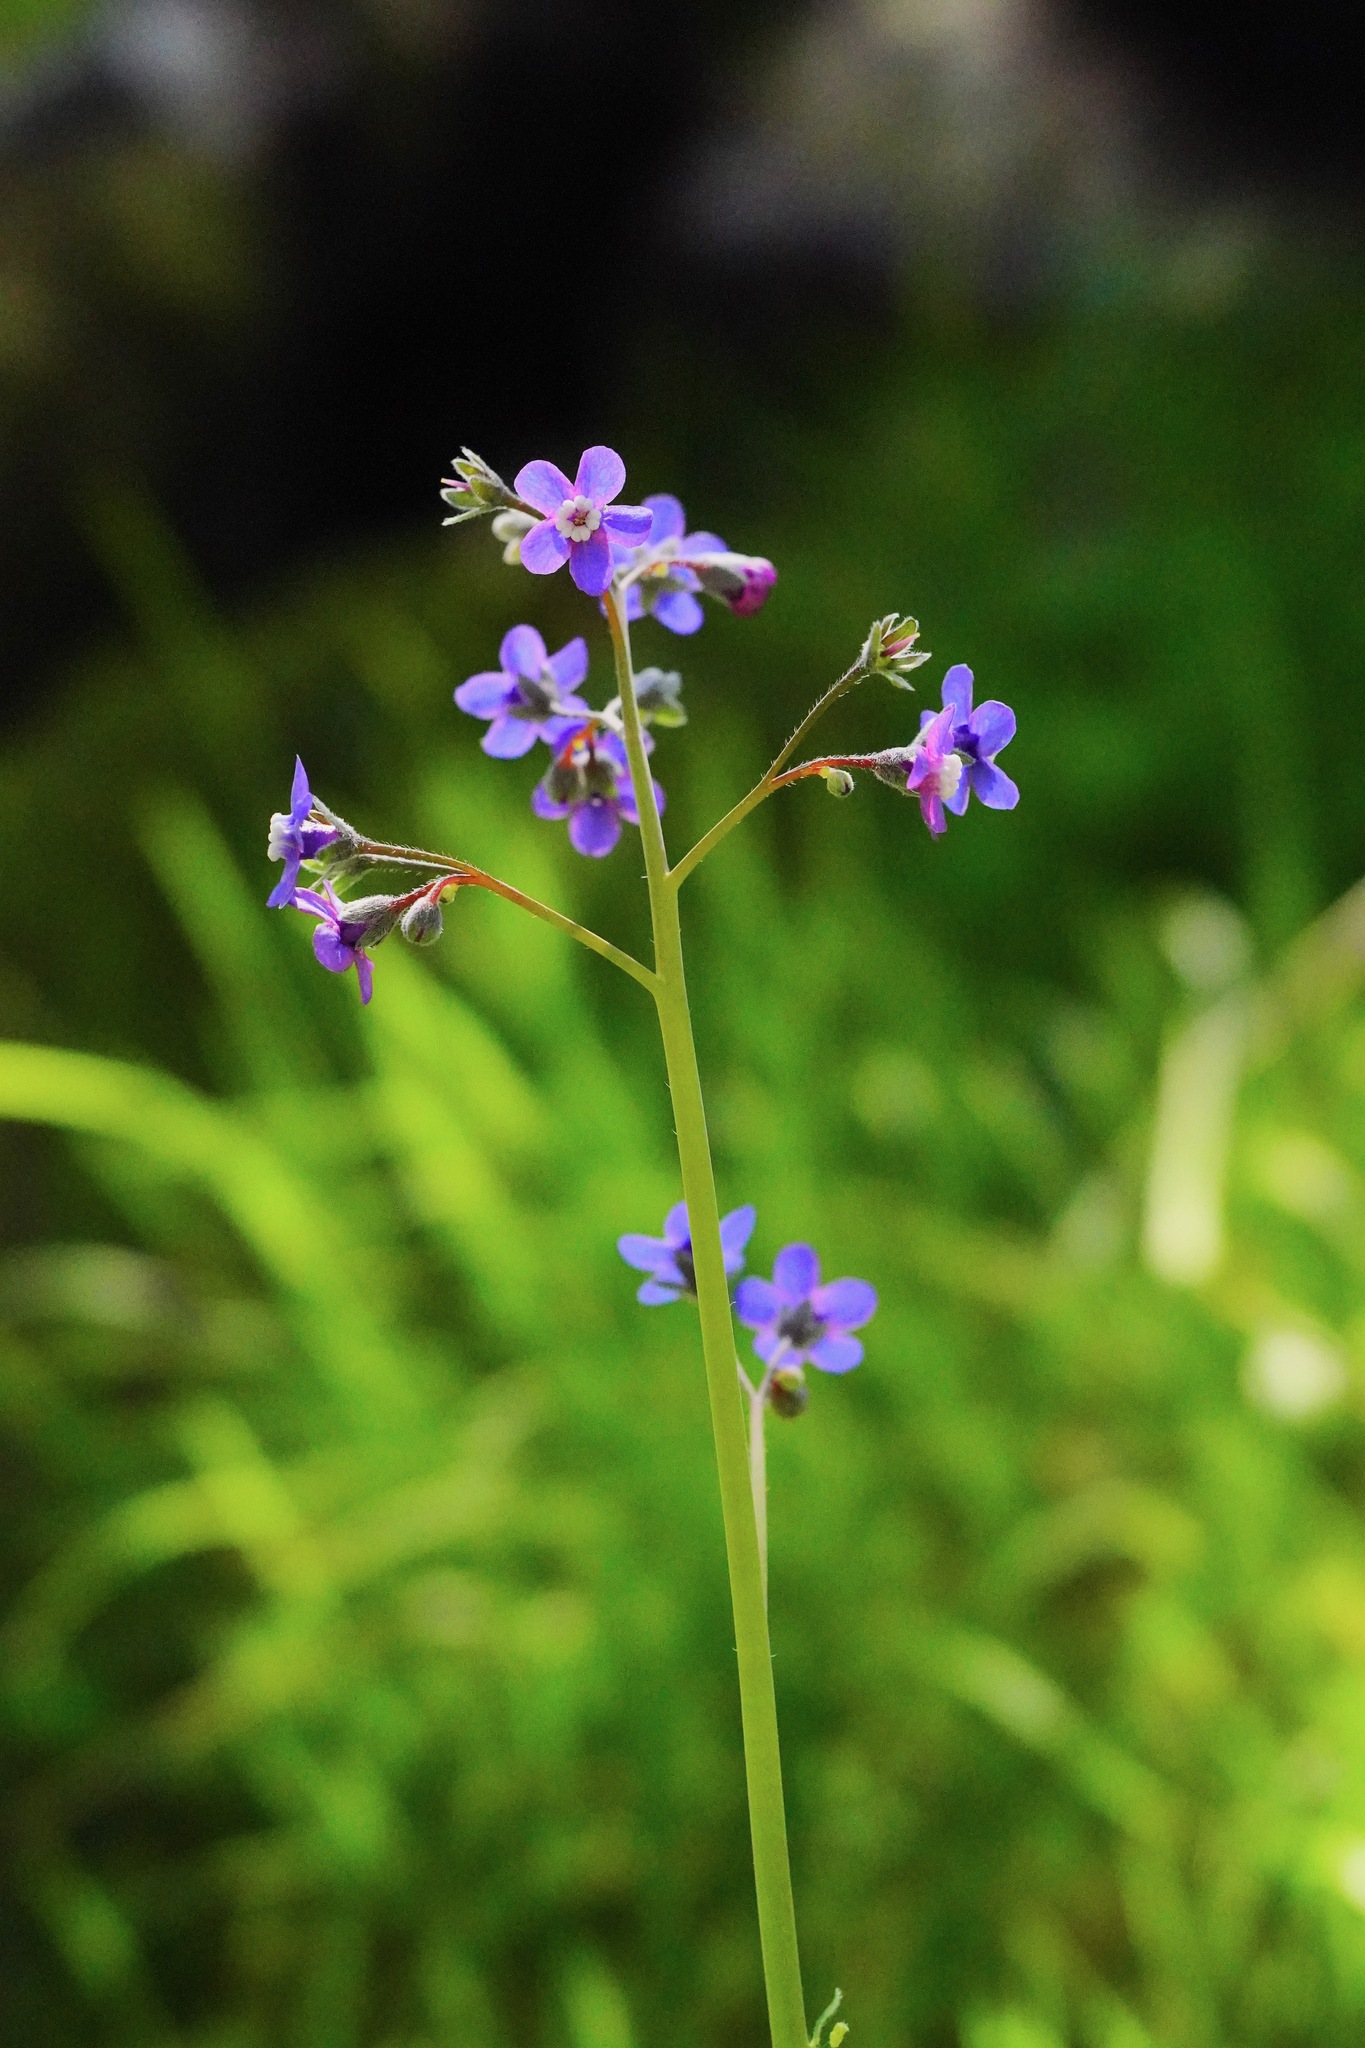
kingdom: Plantae
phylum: Tracheophyta
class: Magnoliopsida
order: Boraginales
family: Boraginaceae
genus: Adelinia
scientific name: Adelinia grande
